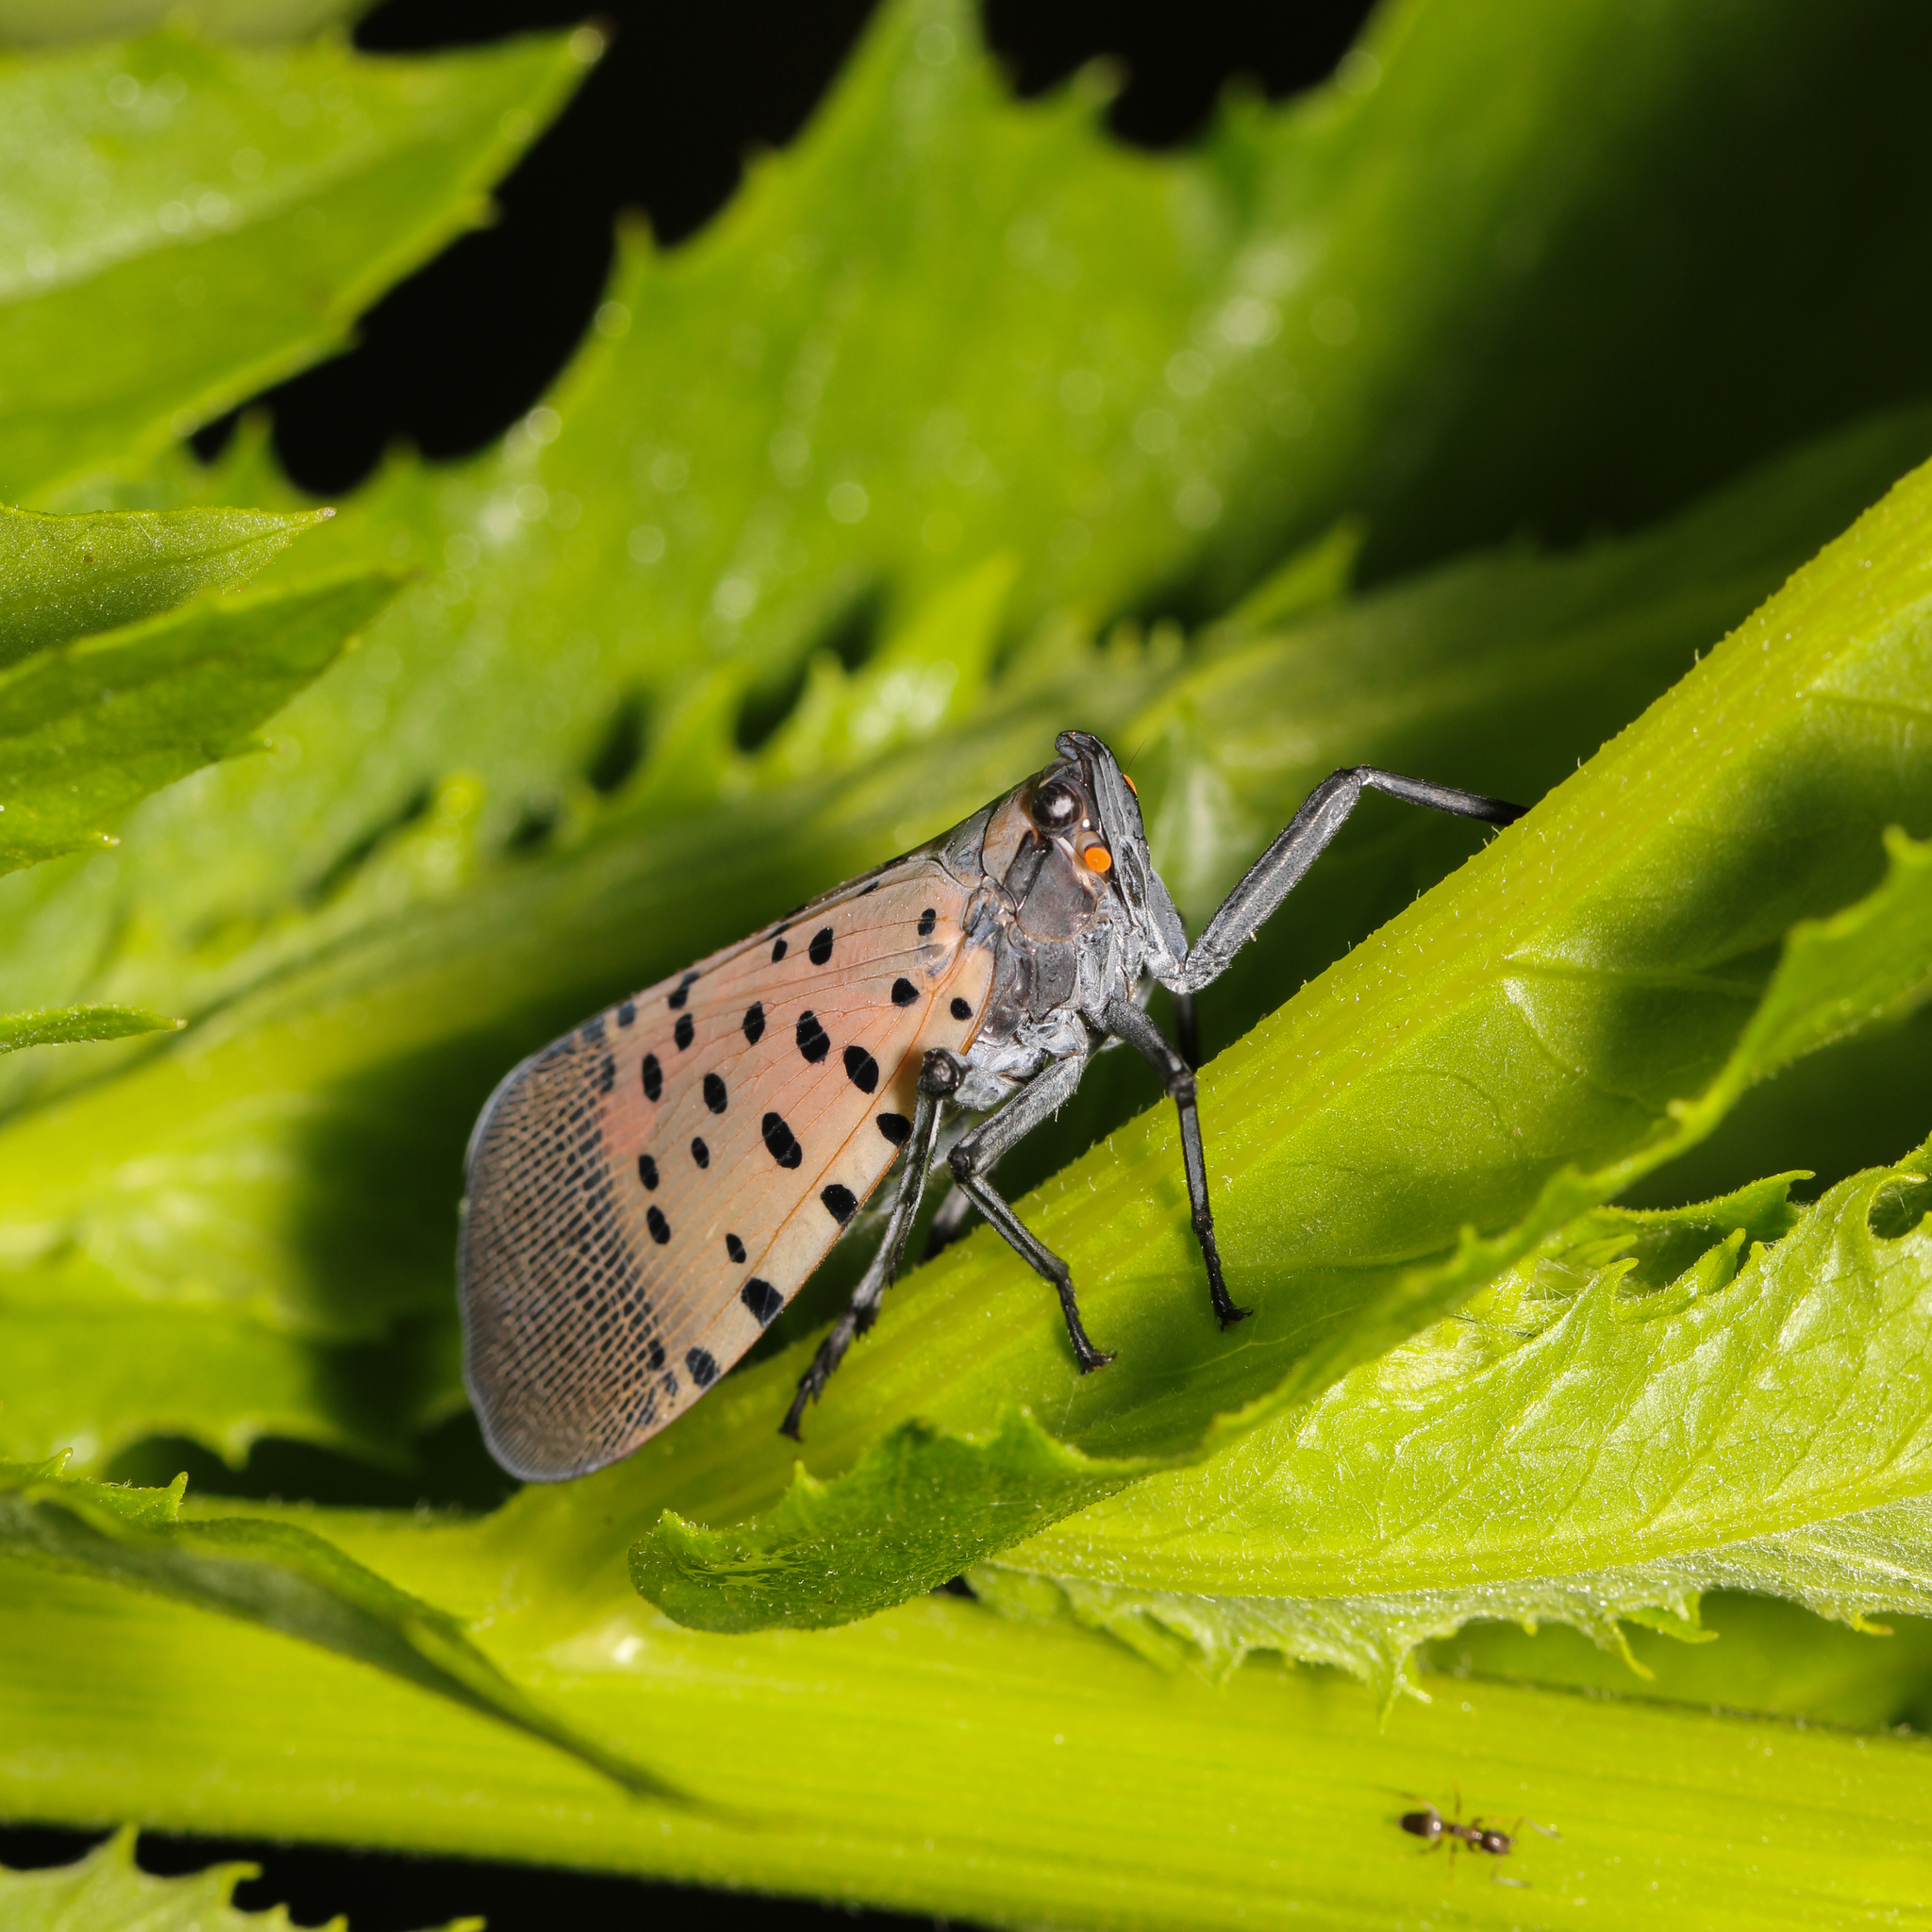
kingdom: Animalia
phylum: Arthropoda
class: Insecta
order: Hemiptera
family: Fulgoridae
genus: Lycorma
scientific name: Lycorma delicatula
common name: Spotted lanternfly
